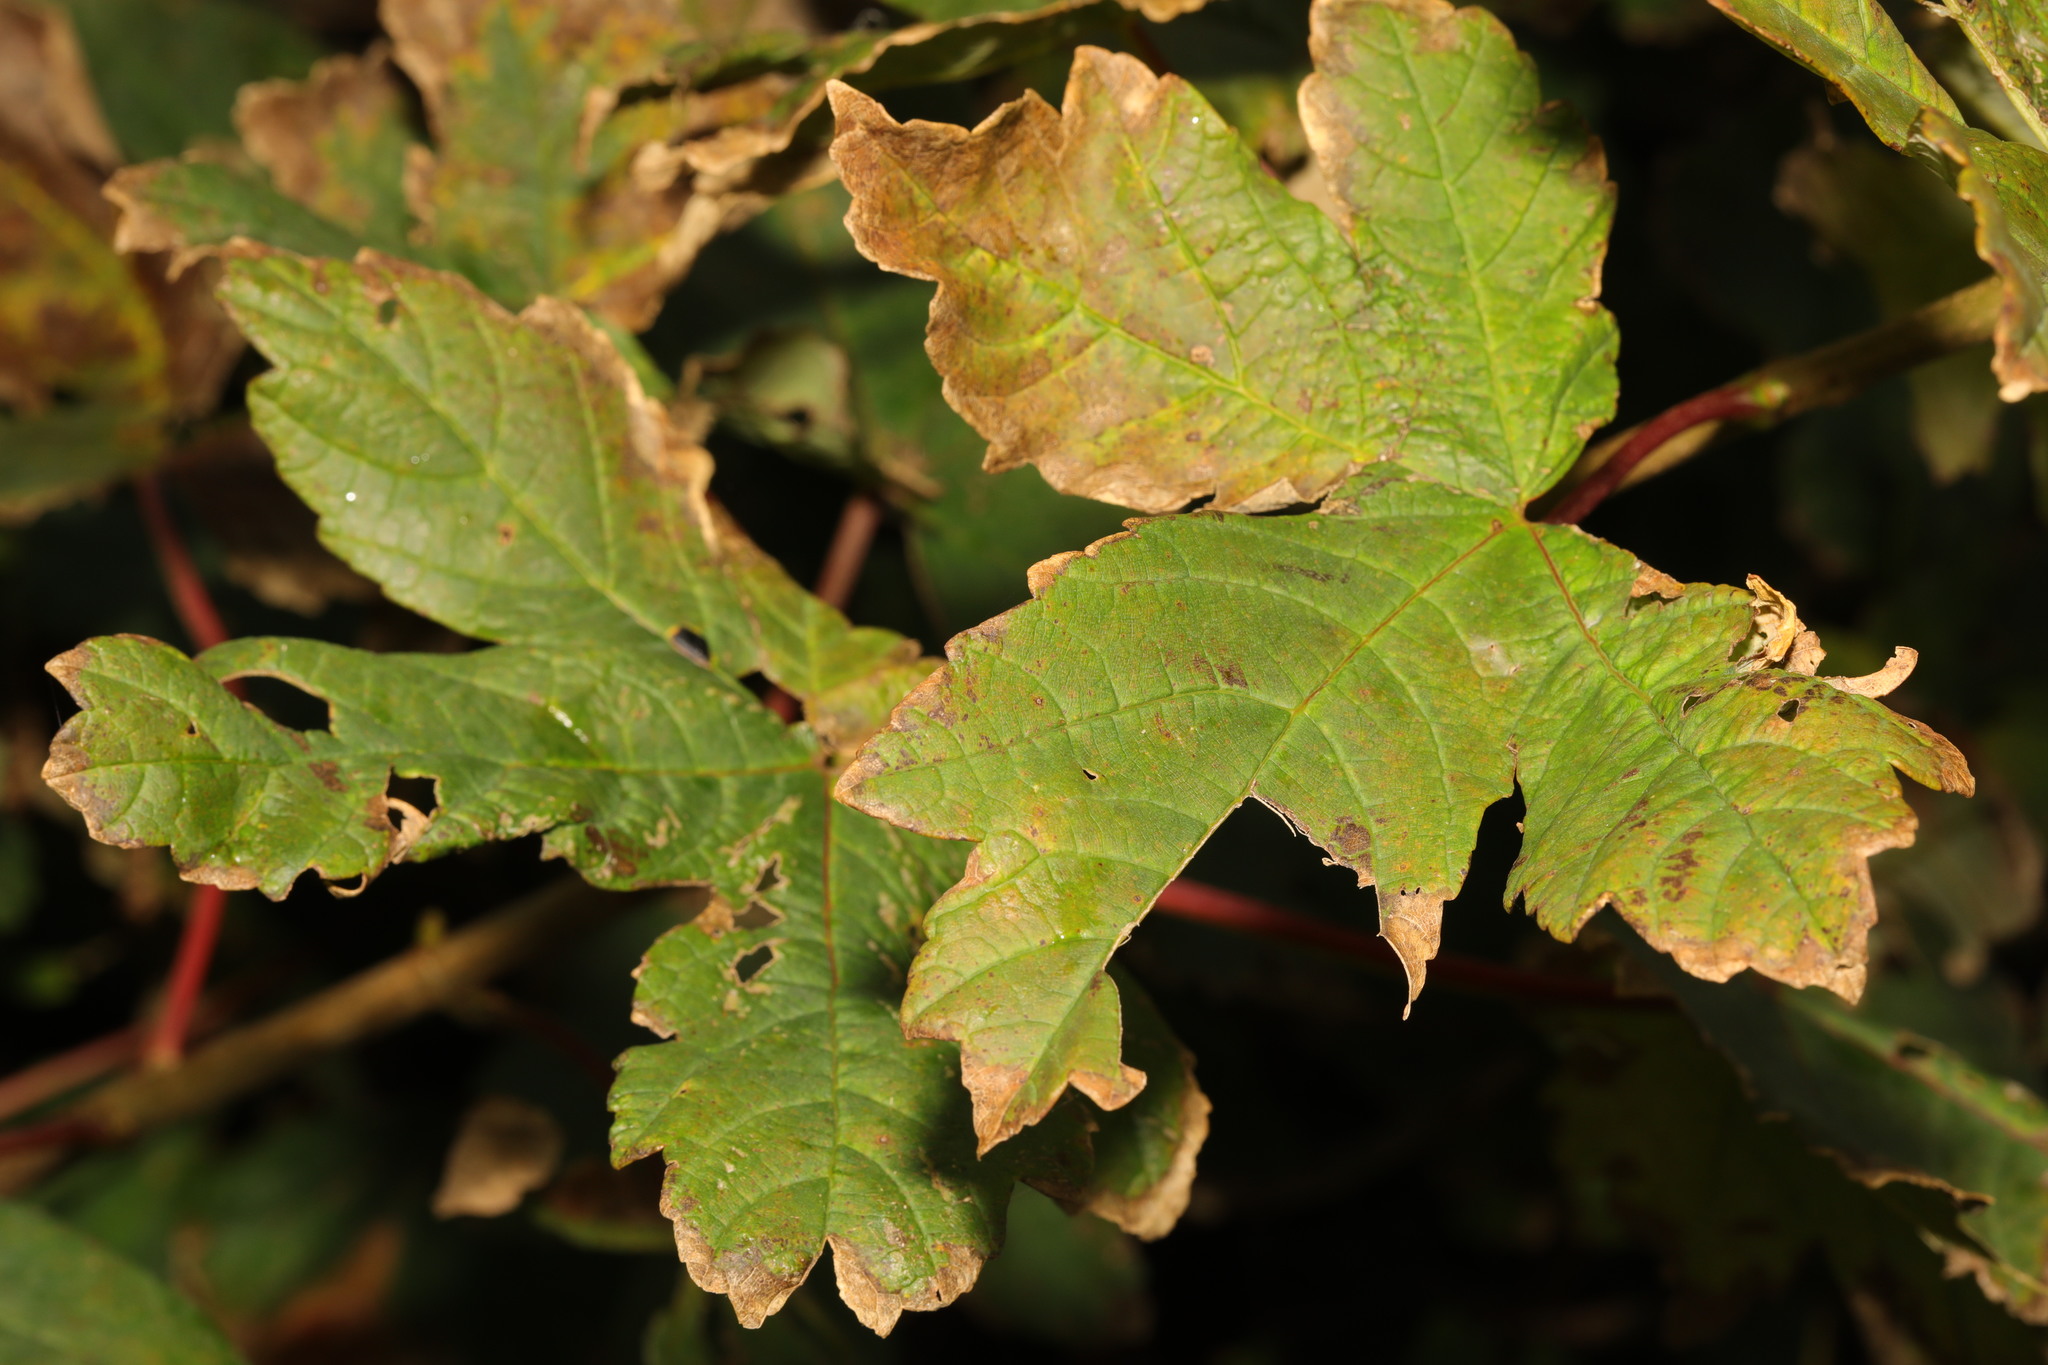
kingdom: Plantae
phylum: Tracheophyta
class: Magnoliopsida
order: Sapindales
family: Sapindaceae
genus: Acer
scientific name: Acer pseudoplatanus
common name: Sycamore
